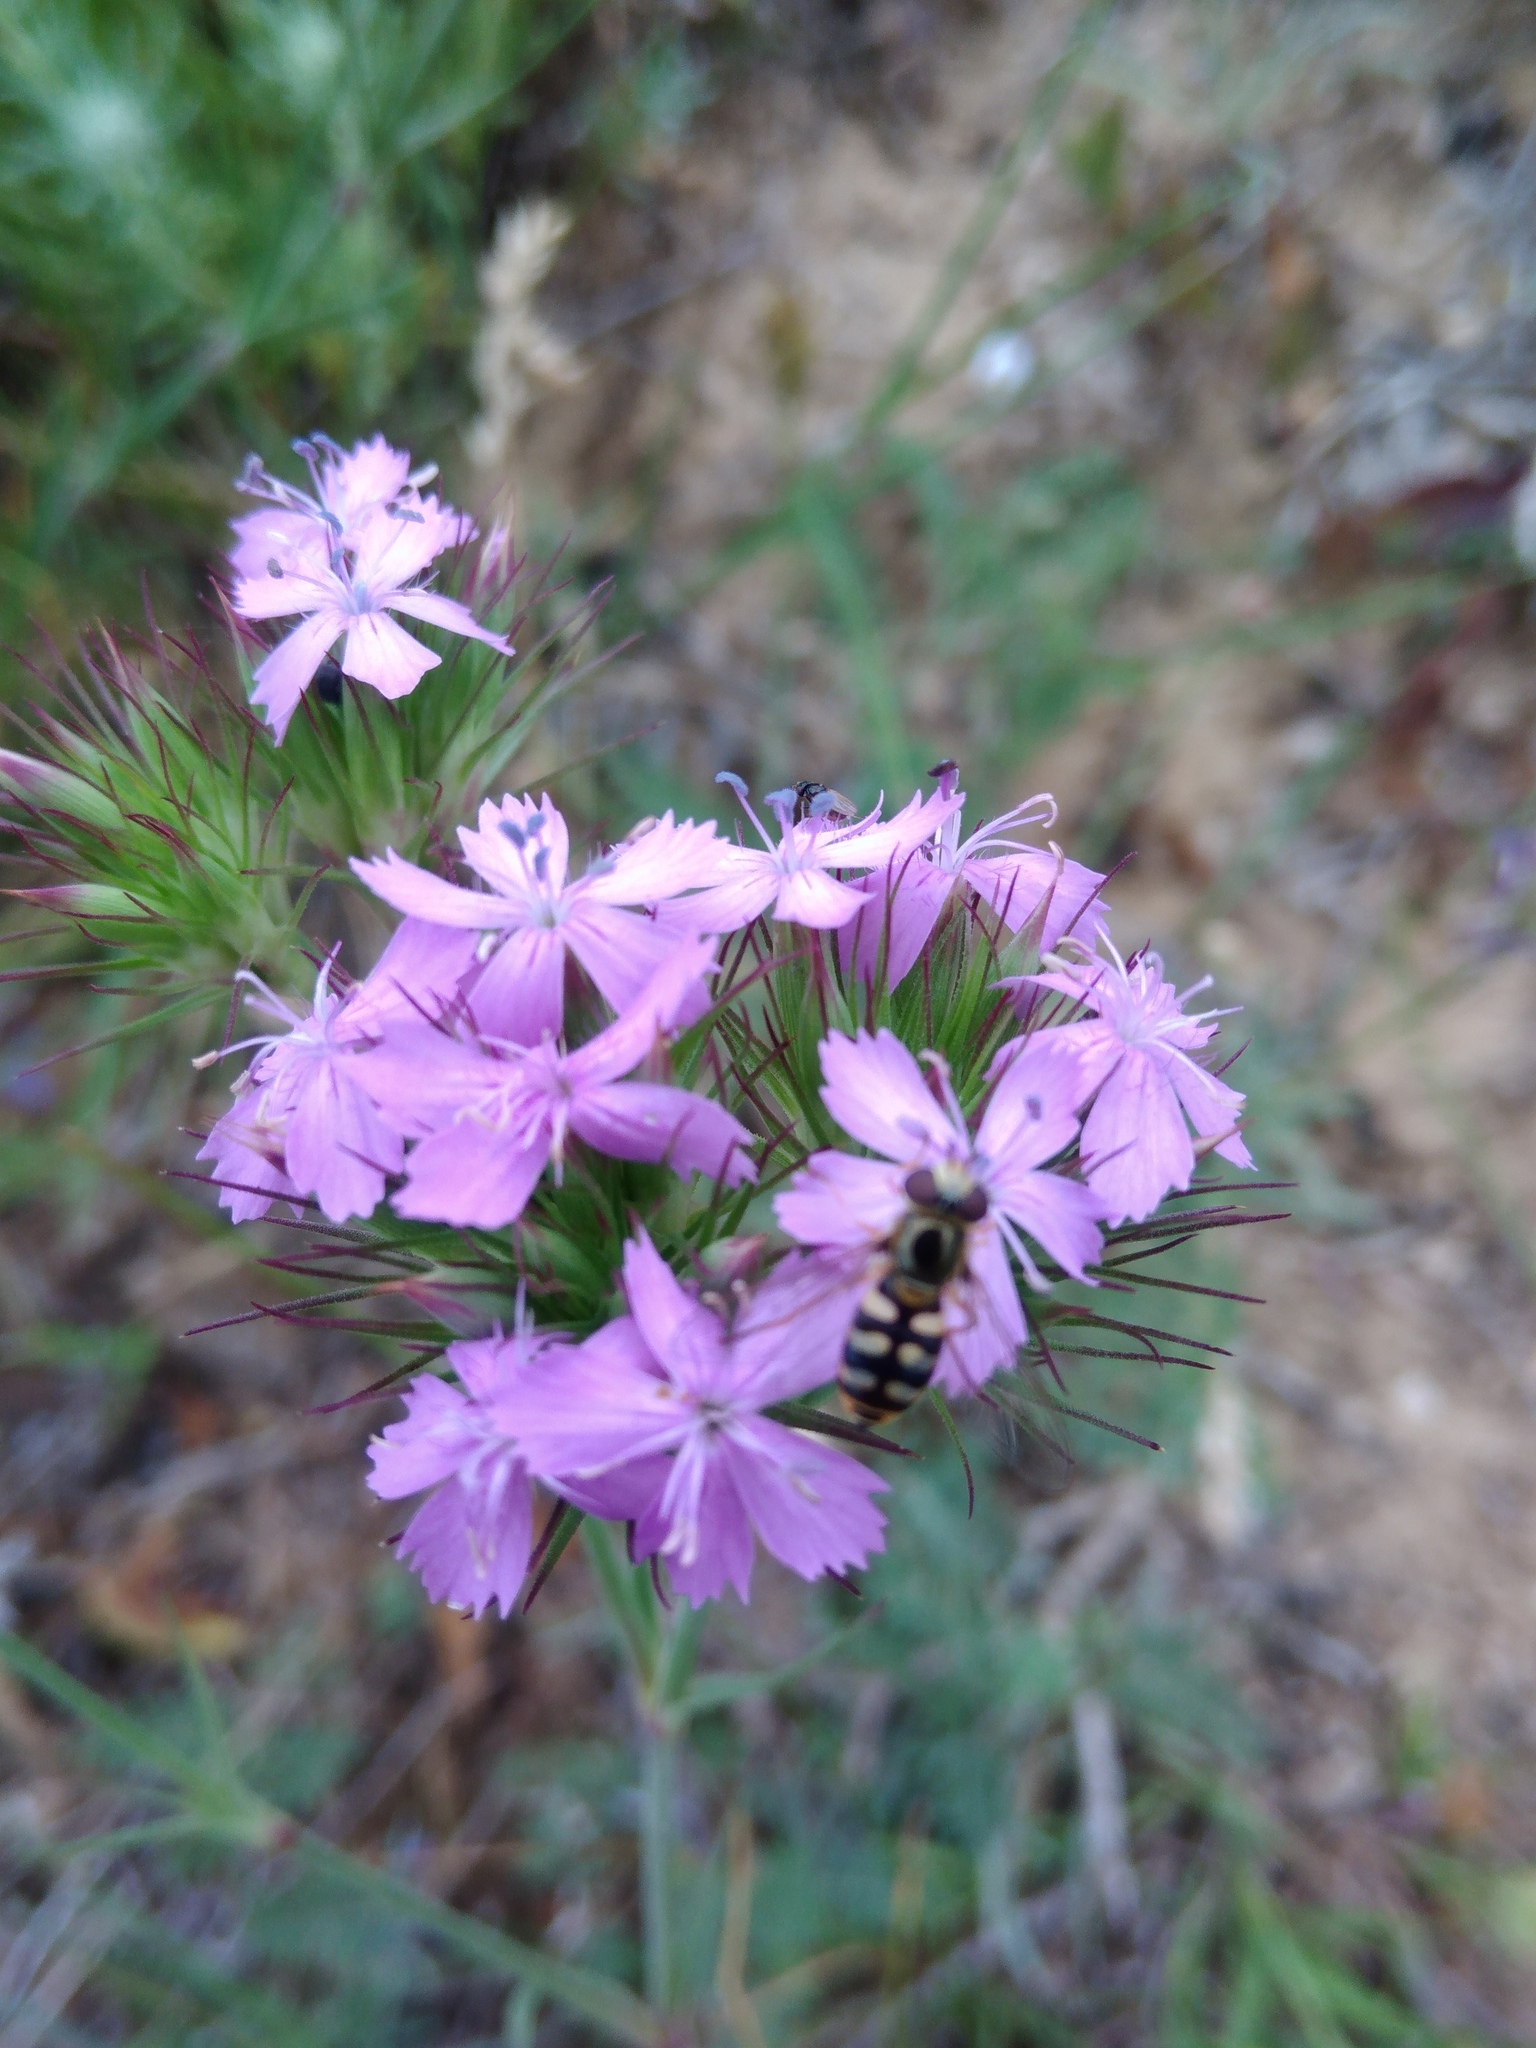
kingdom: Animalia
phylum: Arthropoda
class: Insecta
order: Diptera
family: Syrphidae
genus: Eupeodes
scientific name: Eupeodes corollae
